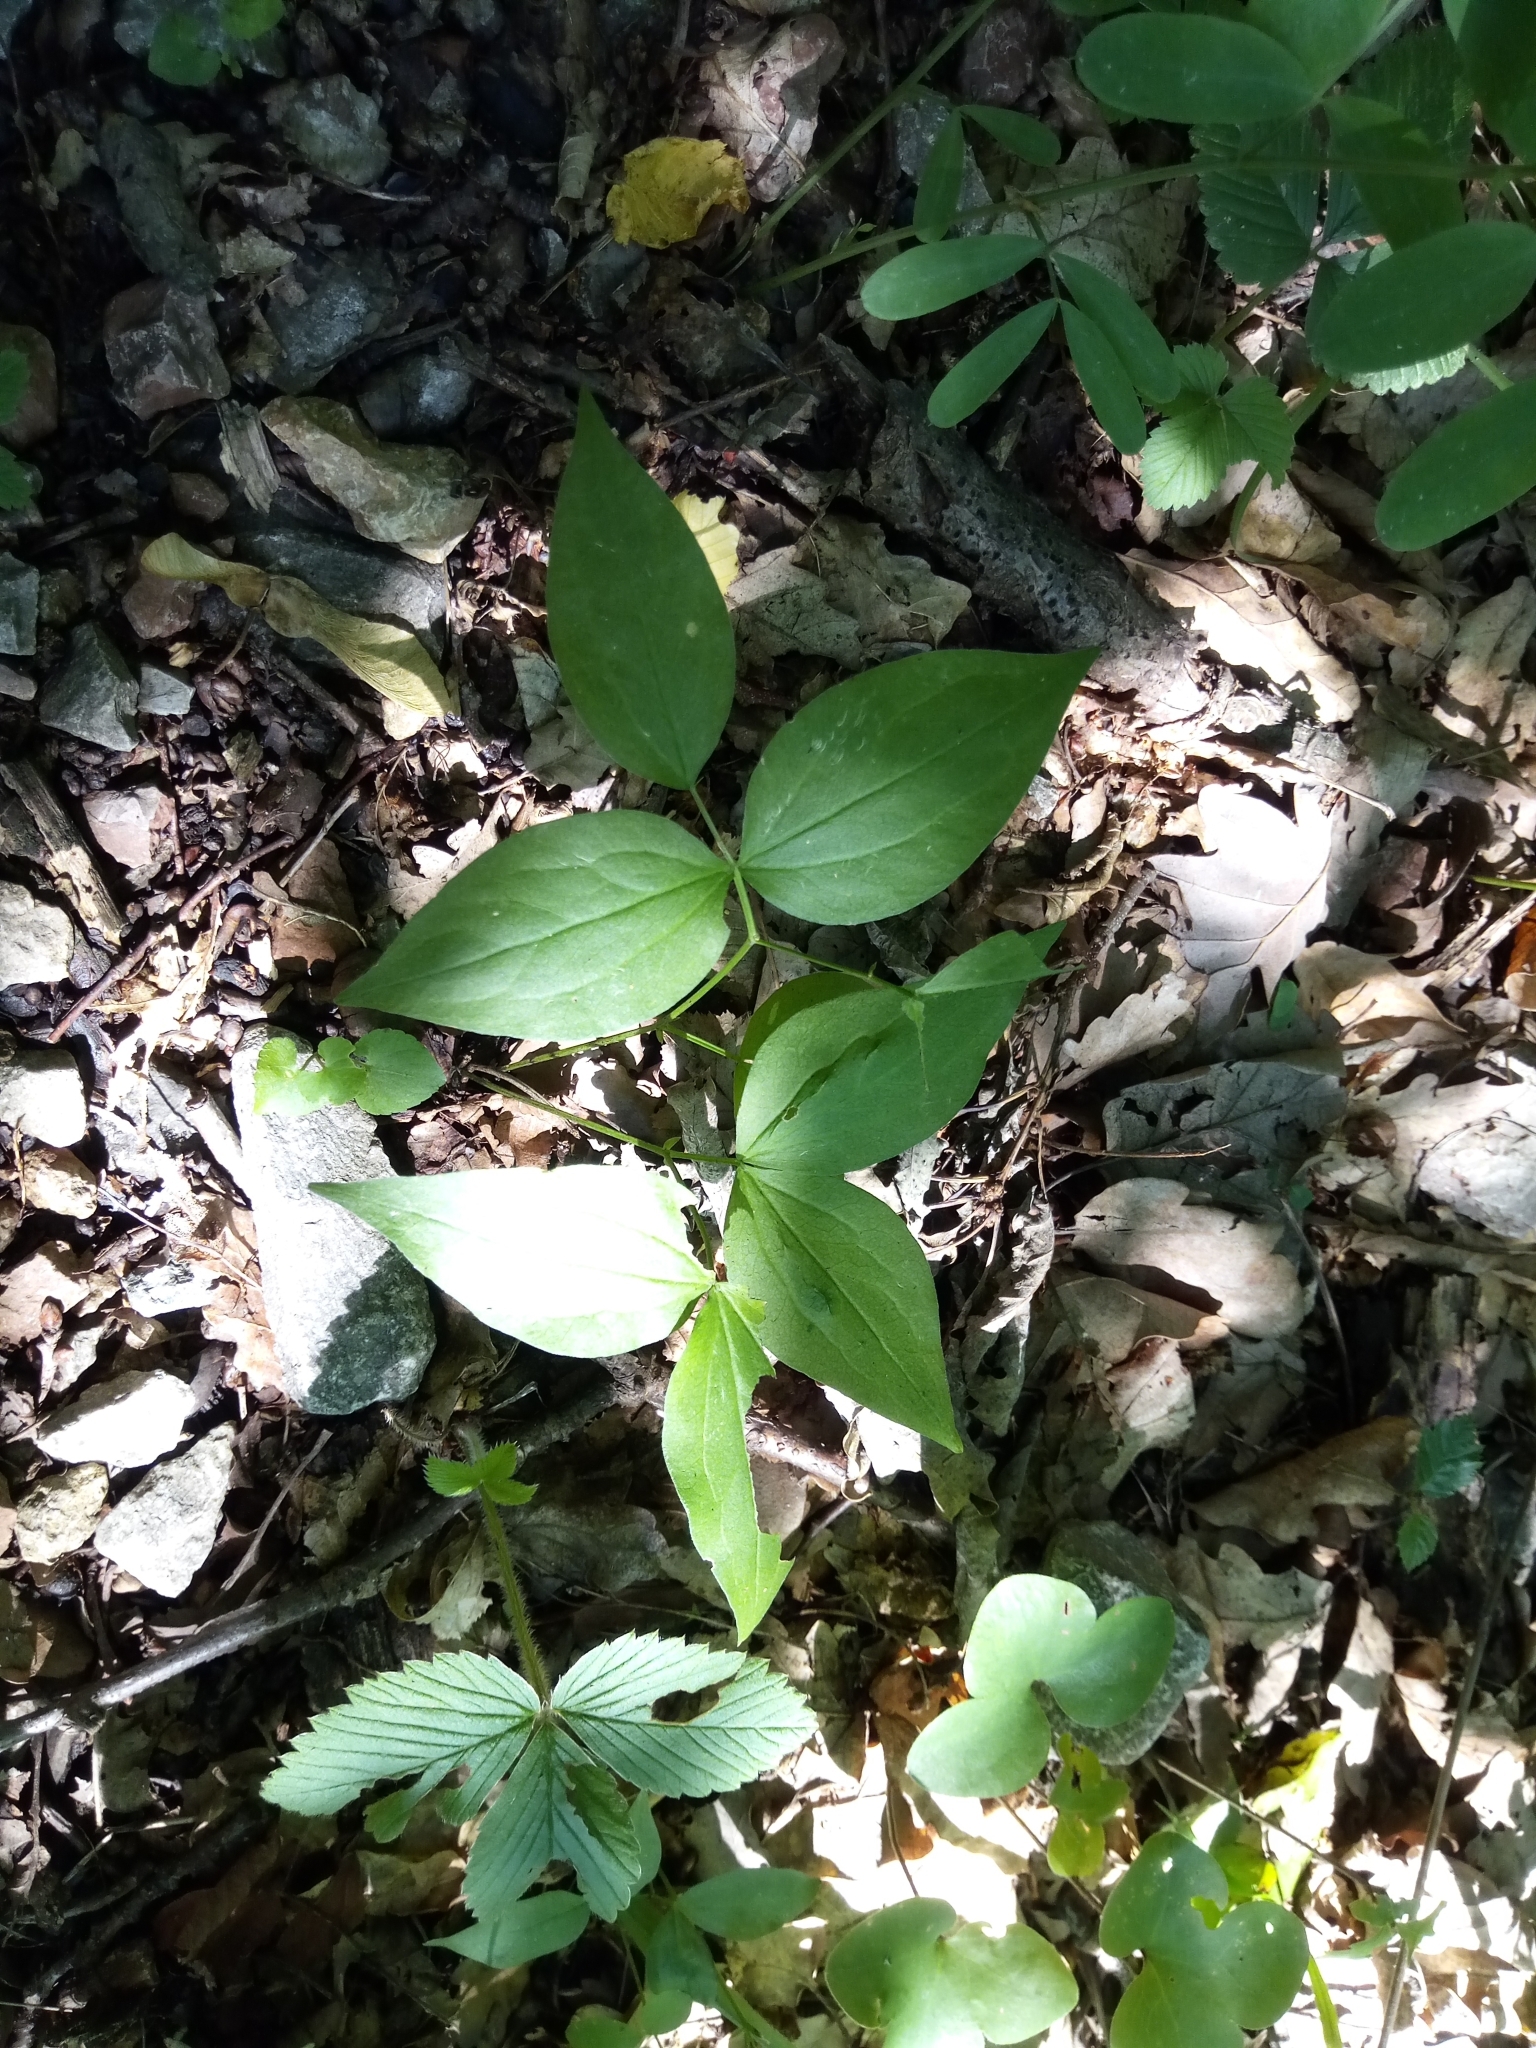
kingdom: Plantae
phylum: Tracheophyta
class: Magnoliopsida
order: Fabales
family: Fabaceae
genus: Lathyrus
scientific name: Lathyrus vernus
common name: Spring pea
